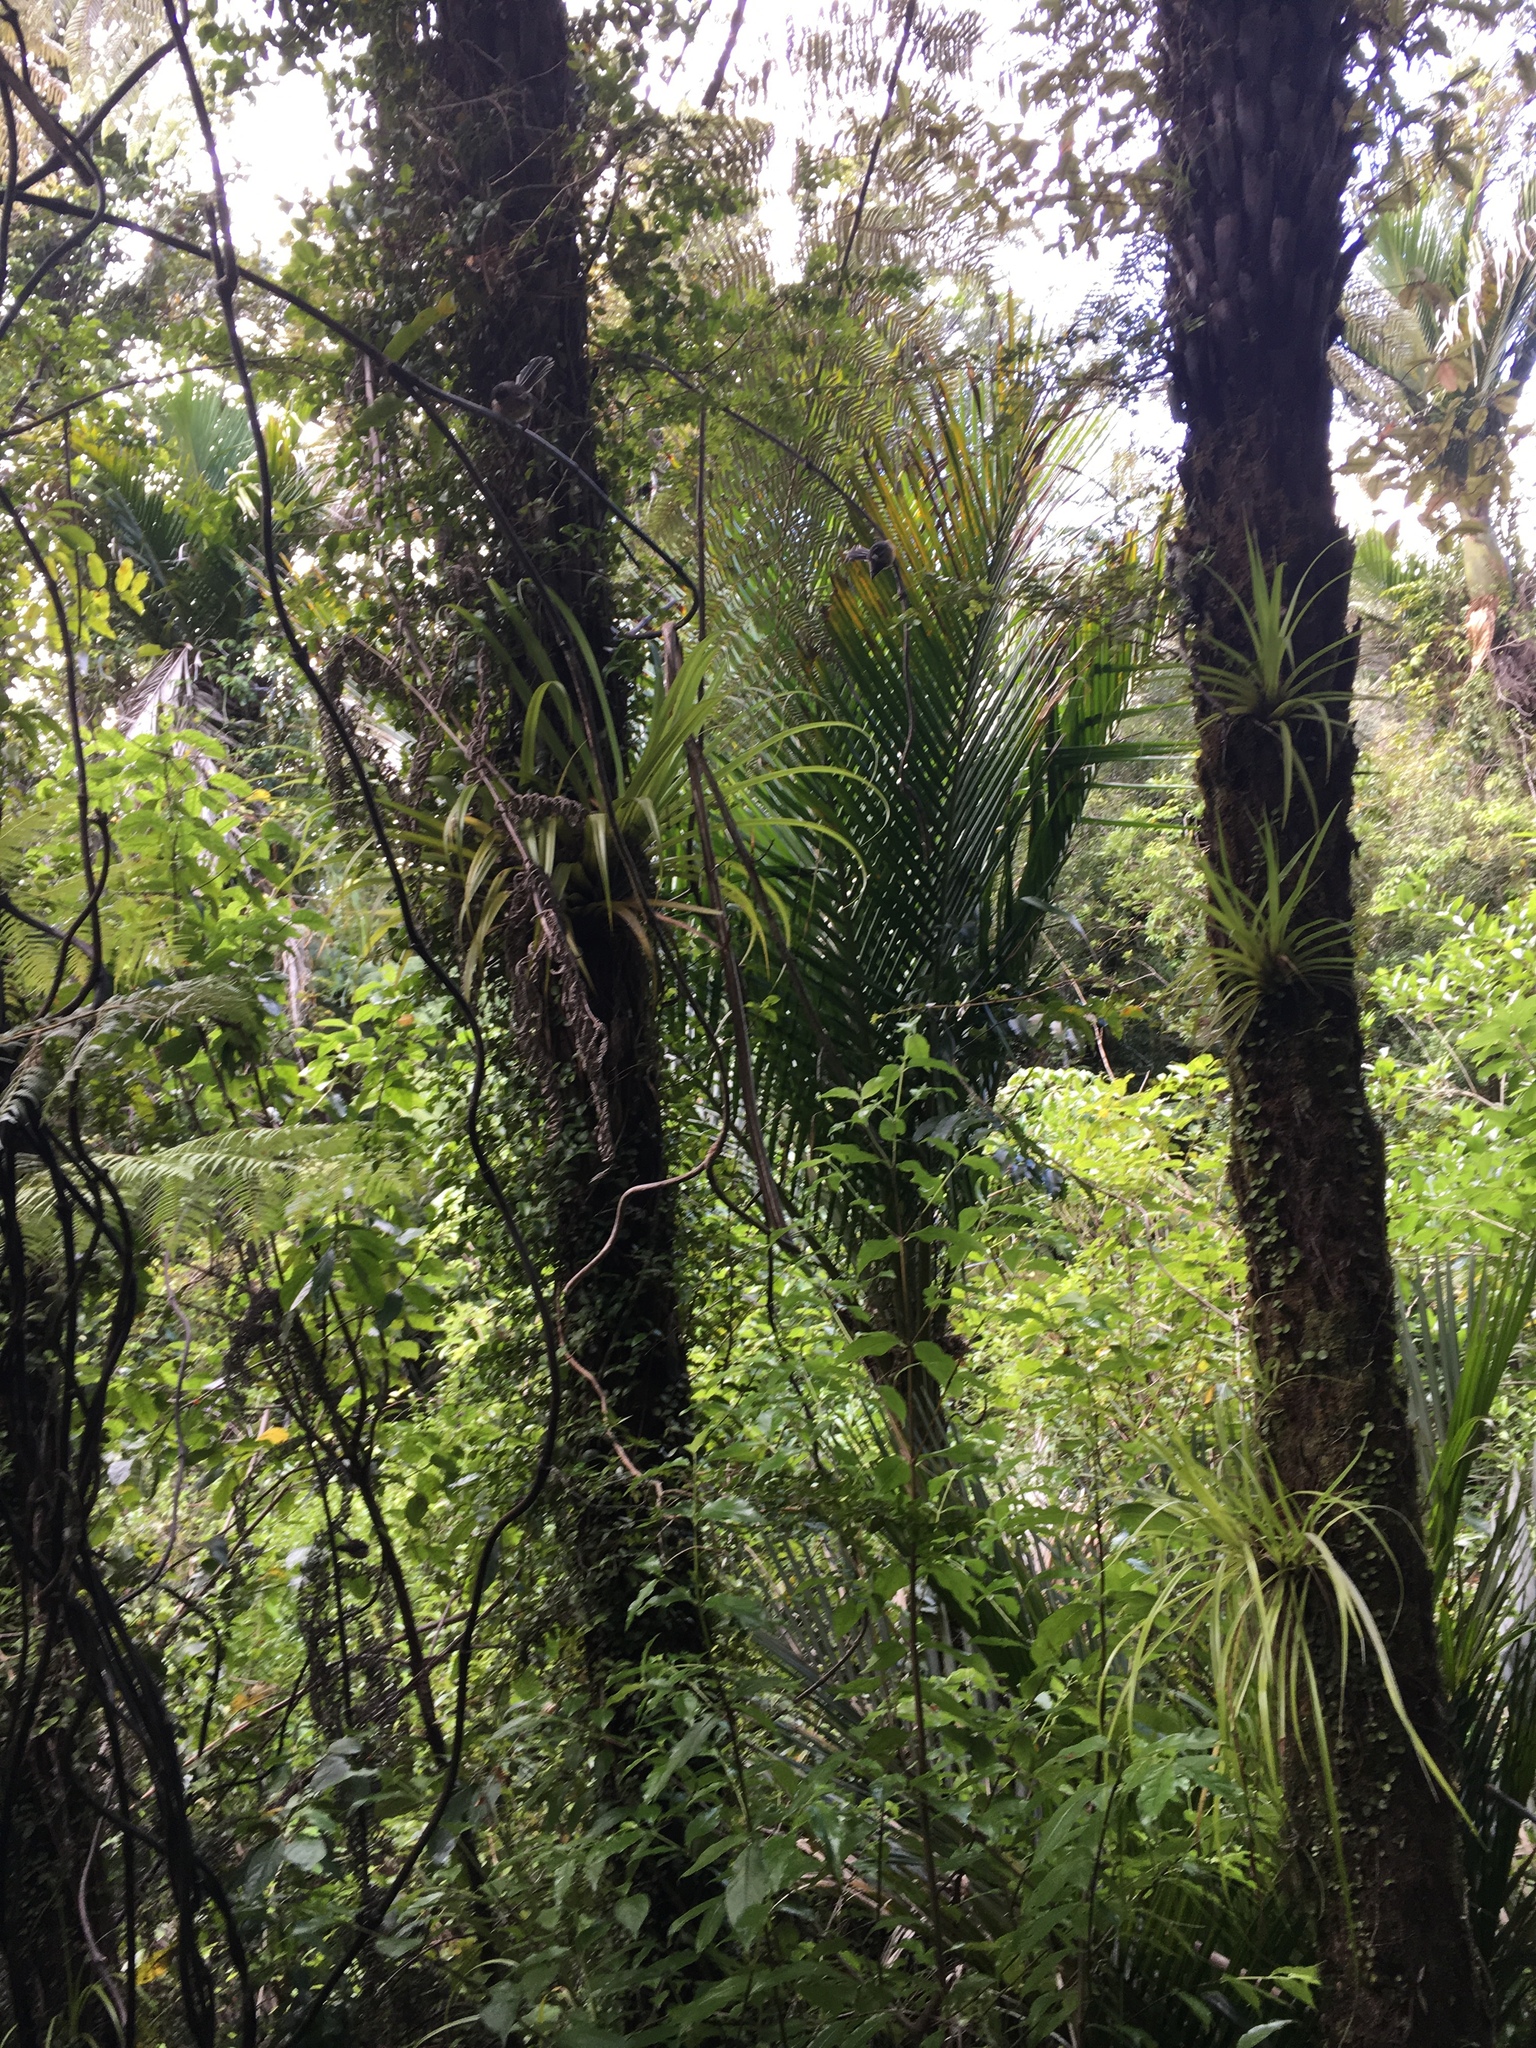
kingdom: Animalia
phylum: Chordata
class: Aves
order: Passeriformes
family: Rhipiduridae
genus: Rhipidura
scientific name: Rhipidura fuliginosa
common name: New zealand fantail
